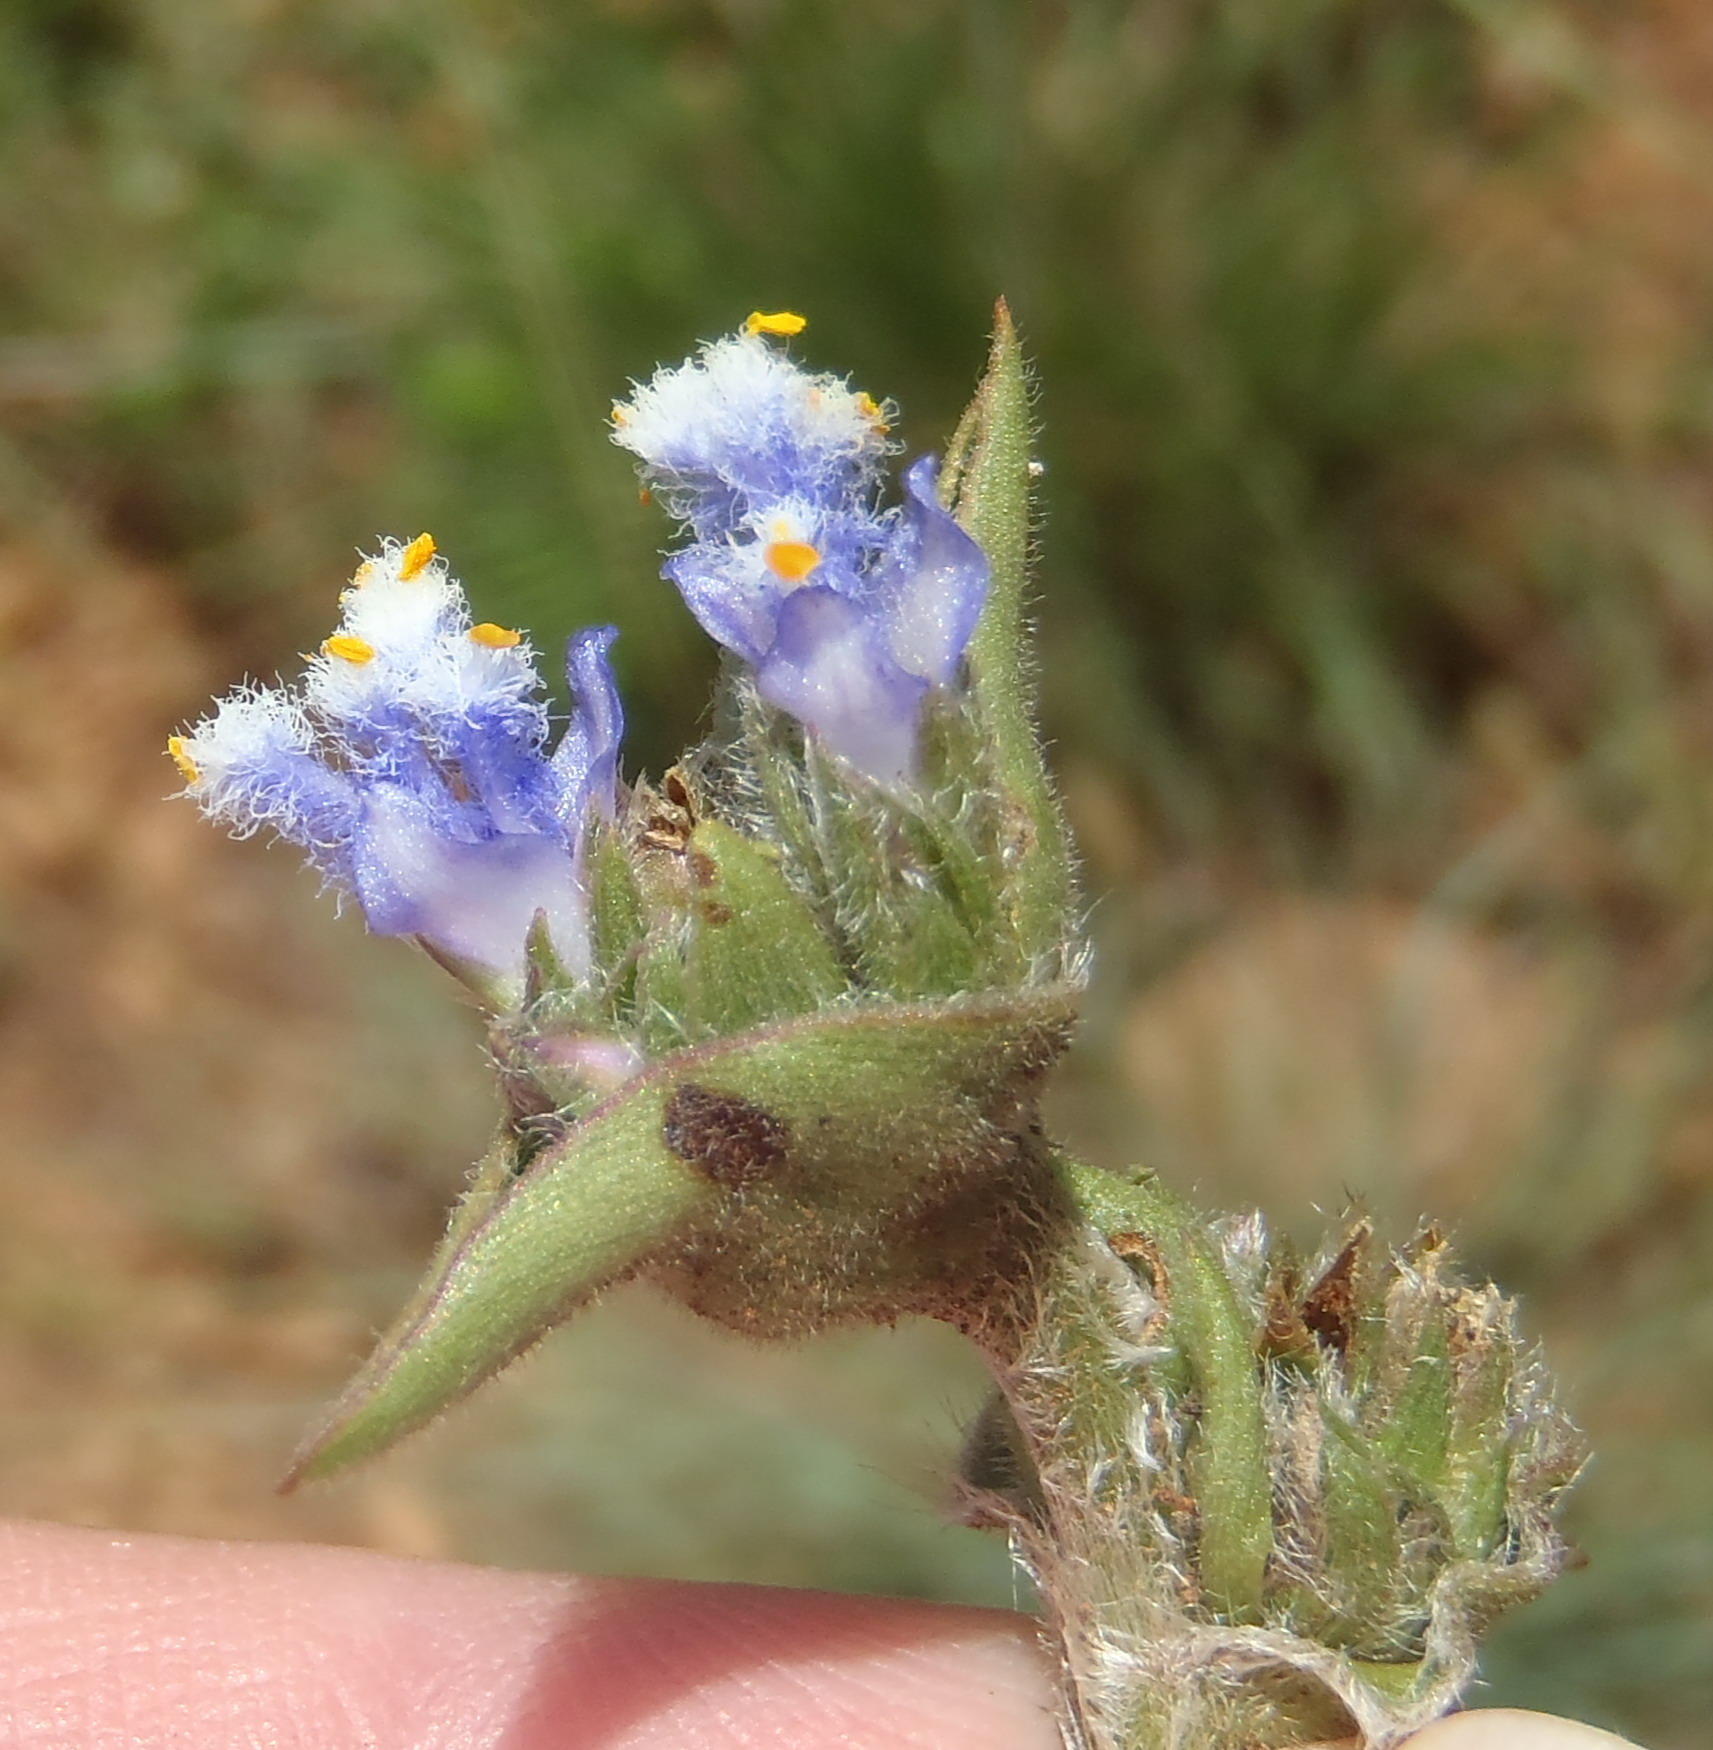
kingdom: Plantae
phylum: Tracheophyta
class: Liliopsida
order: Commelinales
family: Commelinaceae
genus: Cyanotis
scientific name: Cyanotis speciosa
